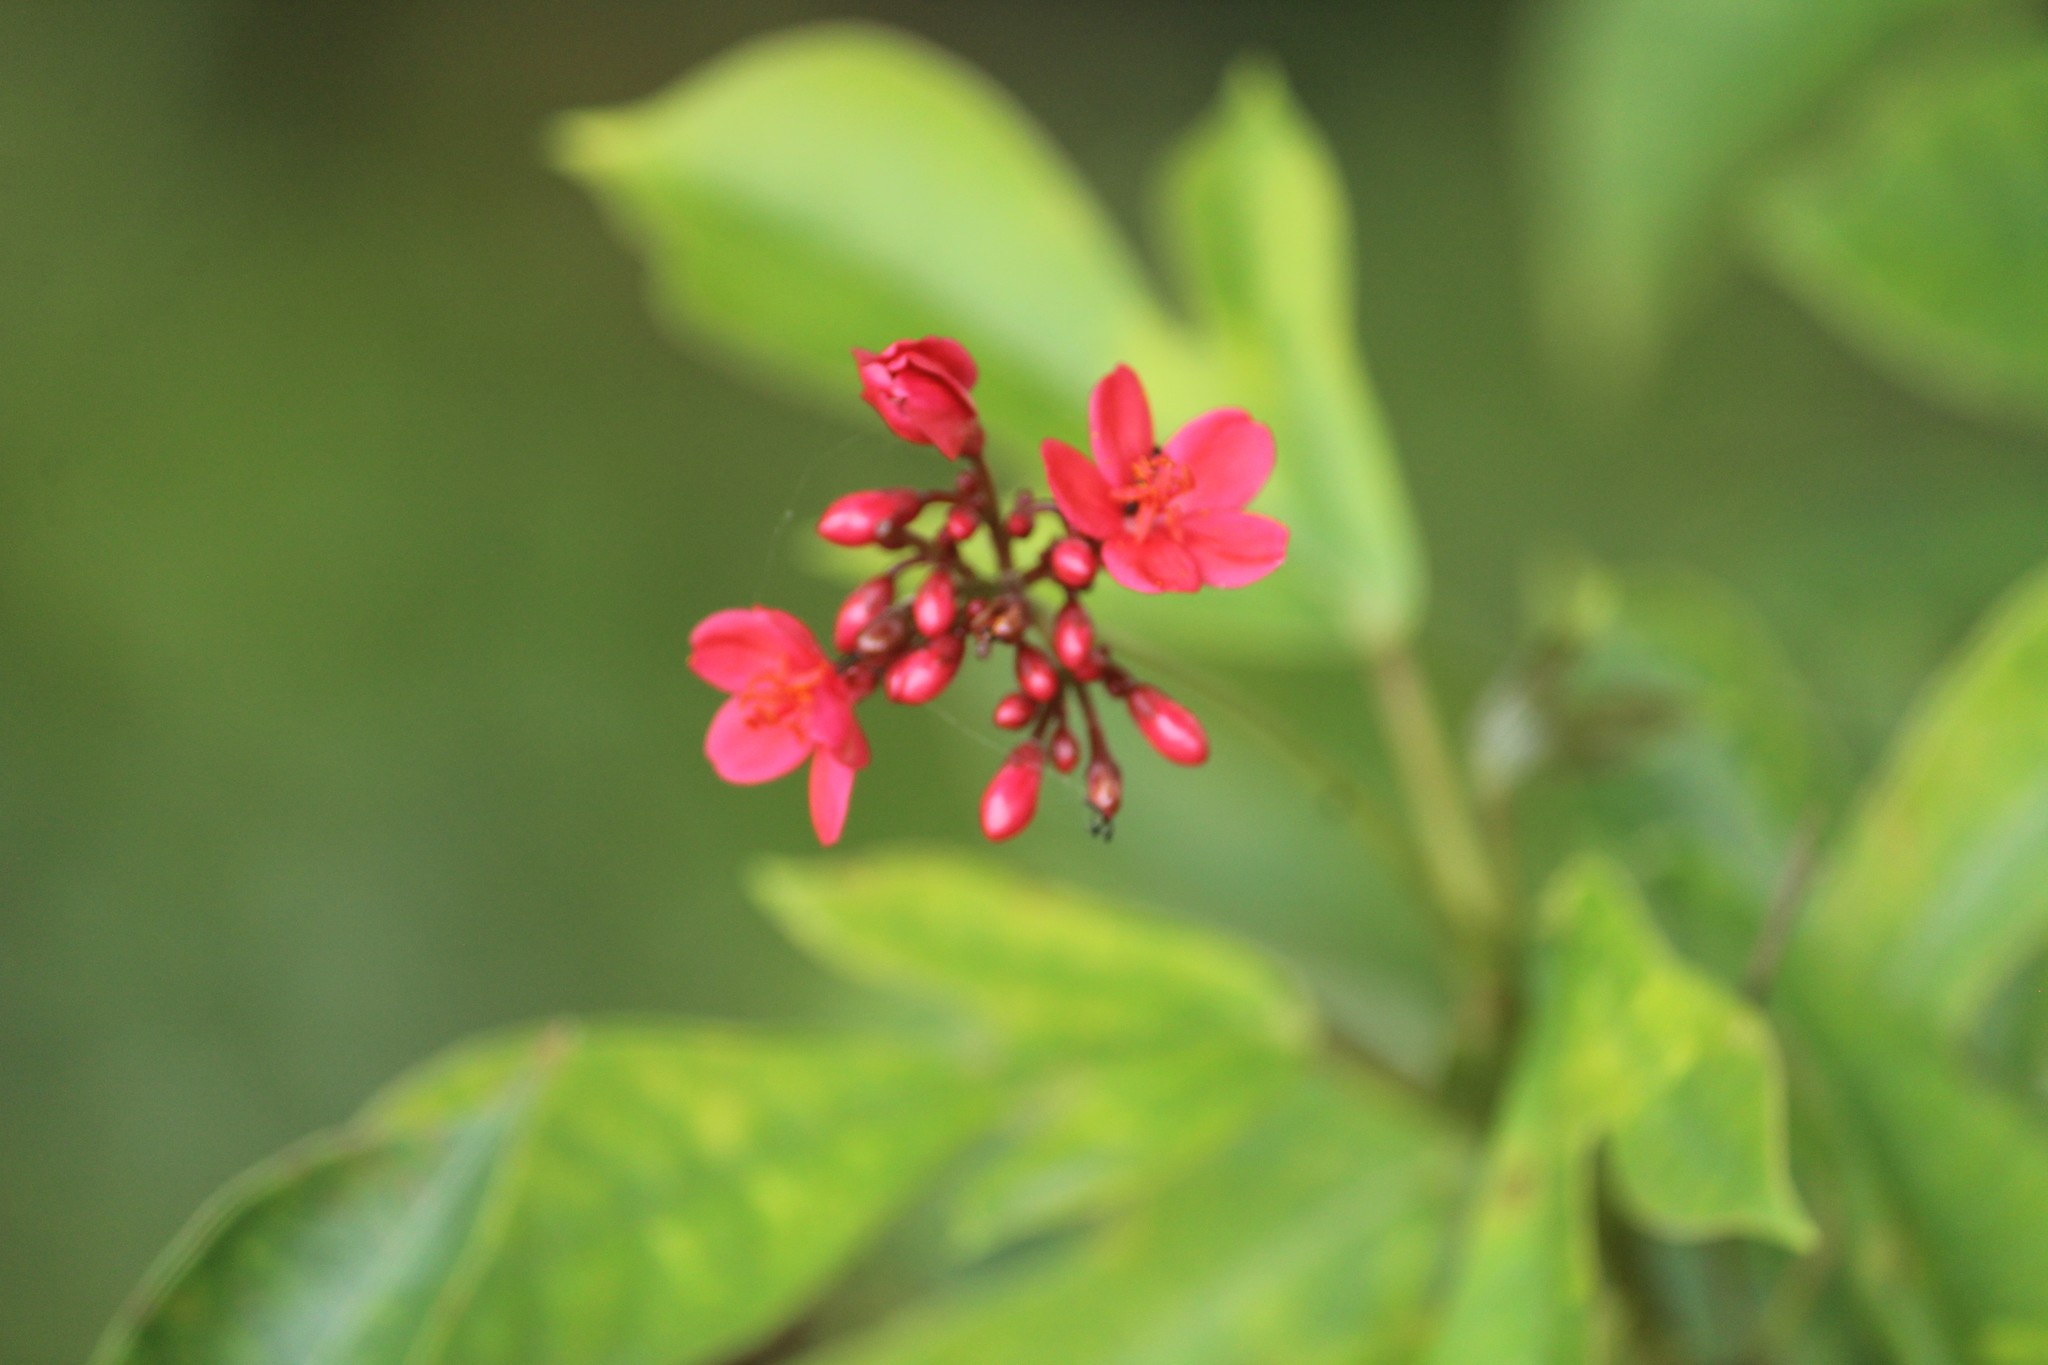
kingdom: Plantae
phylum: Tracheophyta
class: Magnoliopsida
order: Malpighiales
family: Euphorbiaceae
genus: Jatropha
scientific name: Jatropha integerrima
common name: Peregrina
